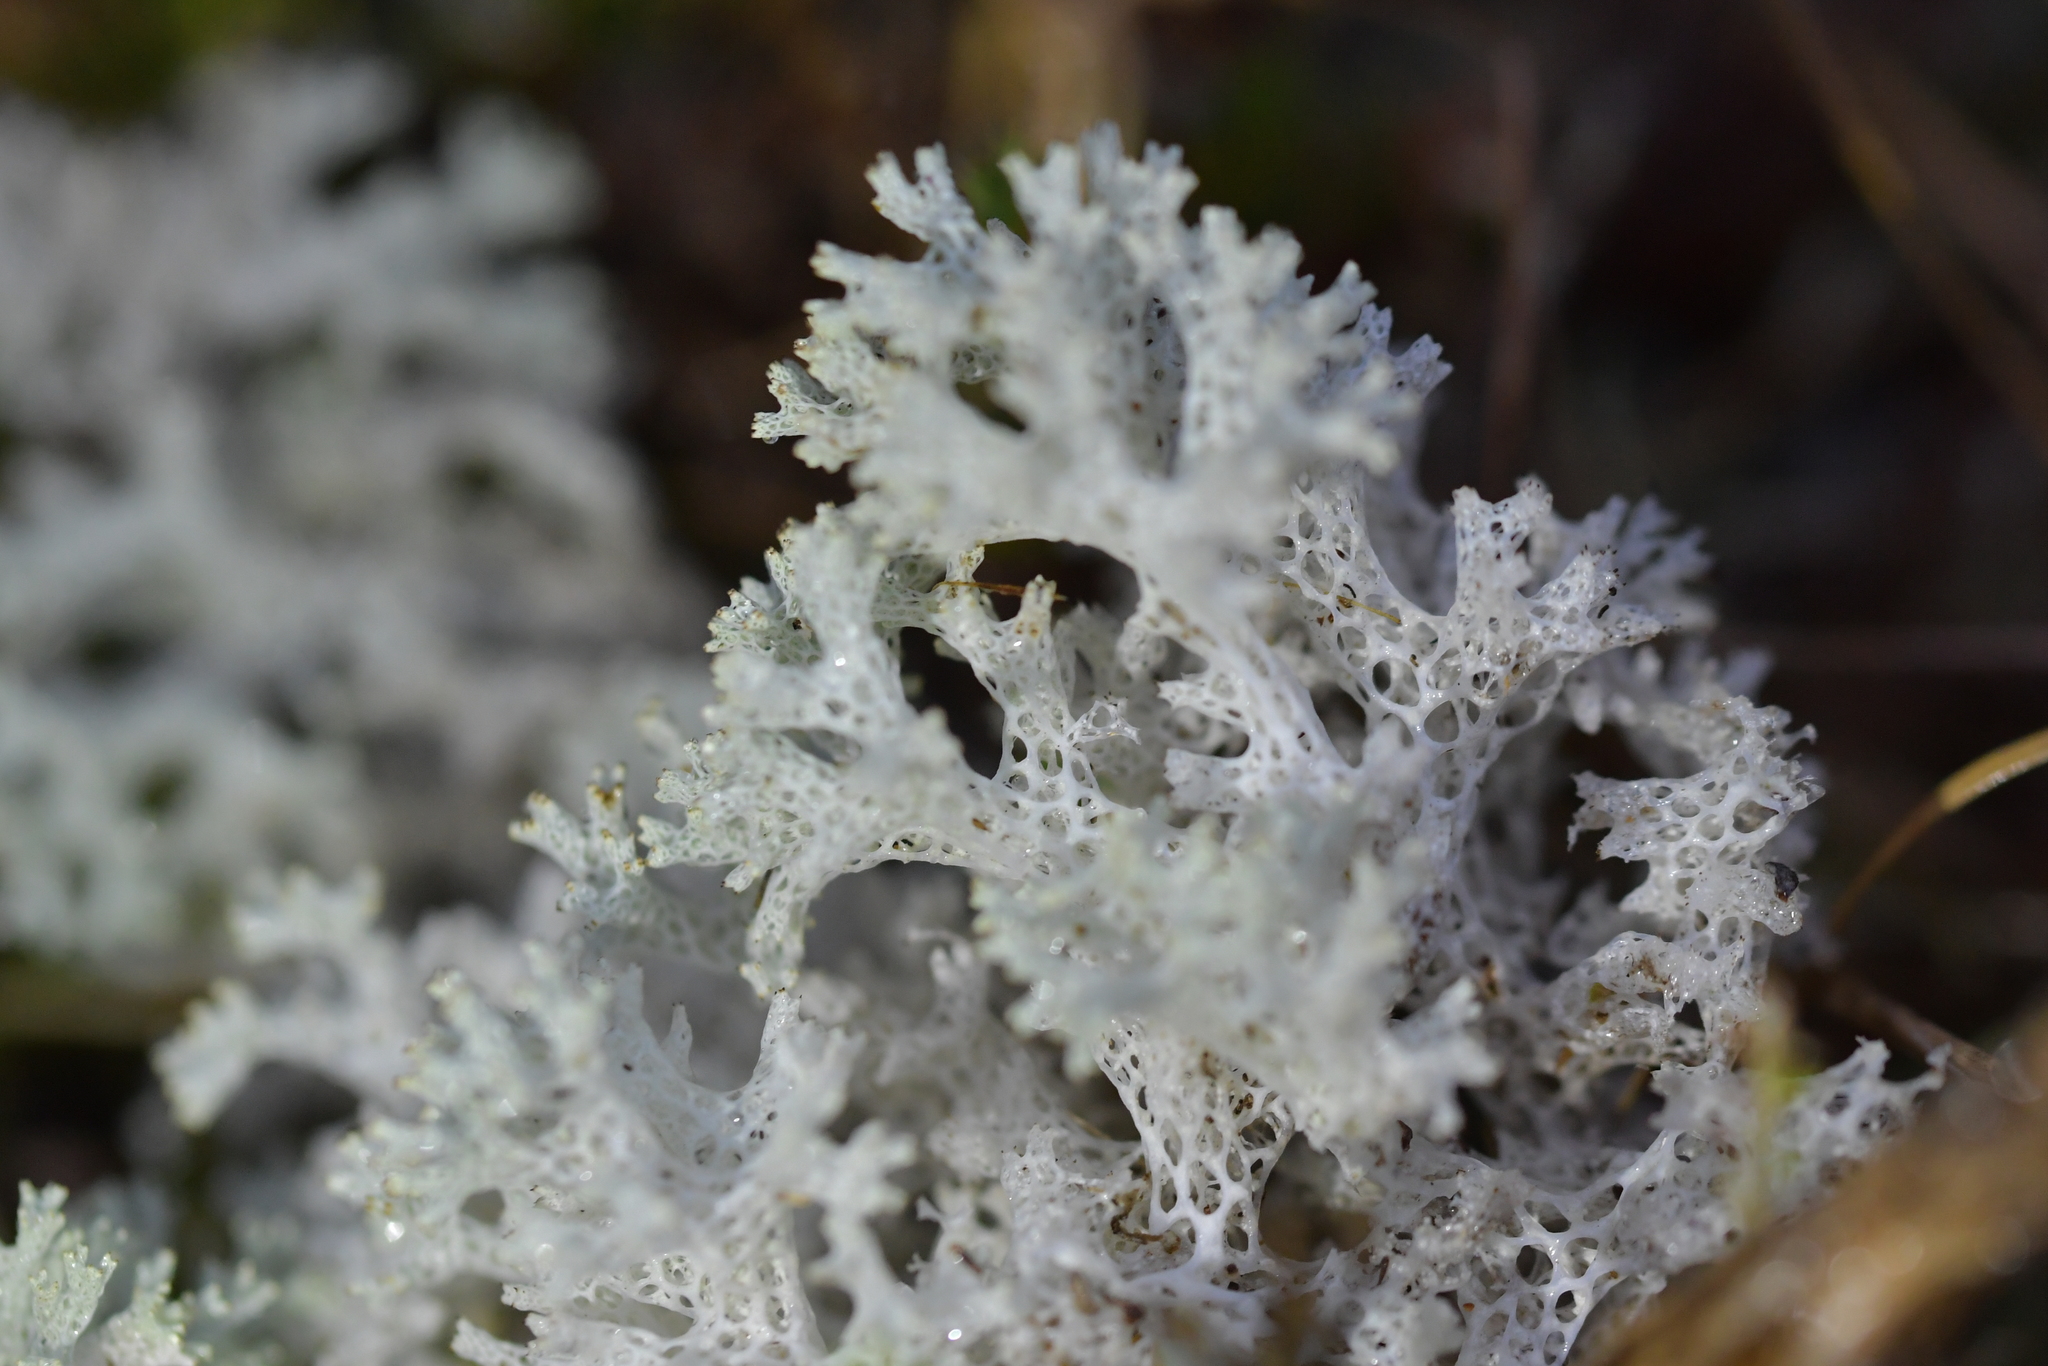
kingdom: Fungi
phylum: Ascomycota
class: Lecanoromycetes
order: Lecanorales
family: Cladoniaceae
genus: Pulchrocladia
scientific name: Pulchrocladia retipora
